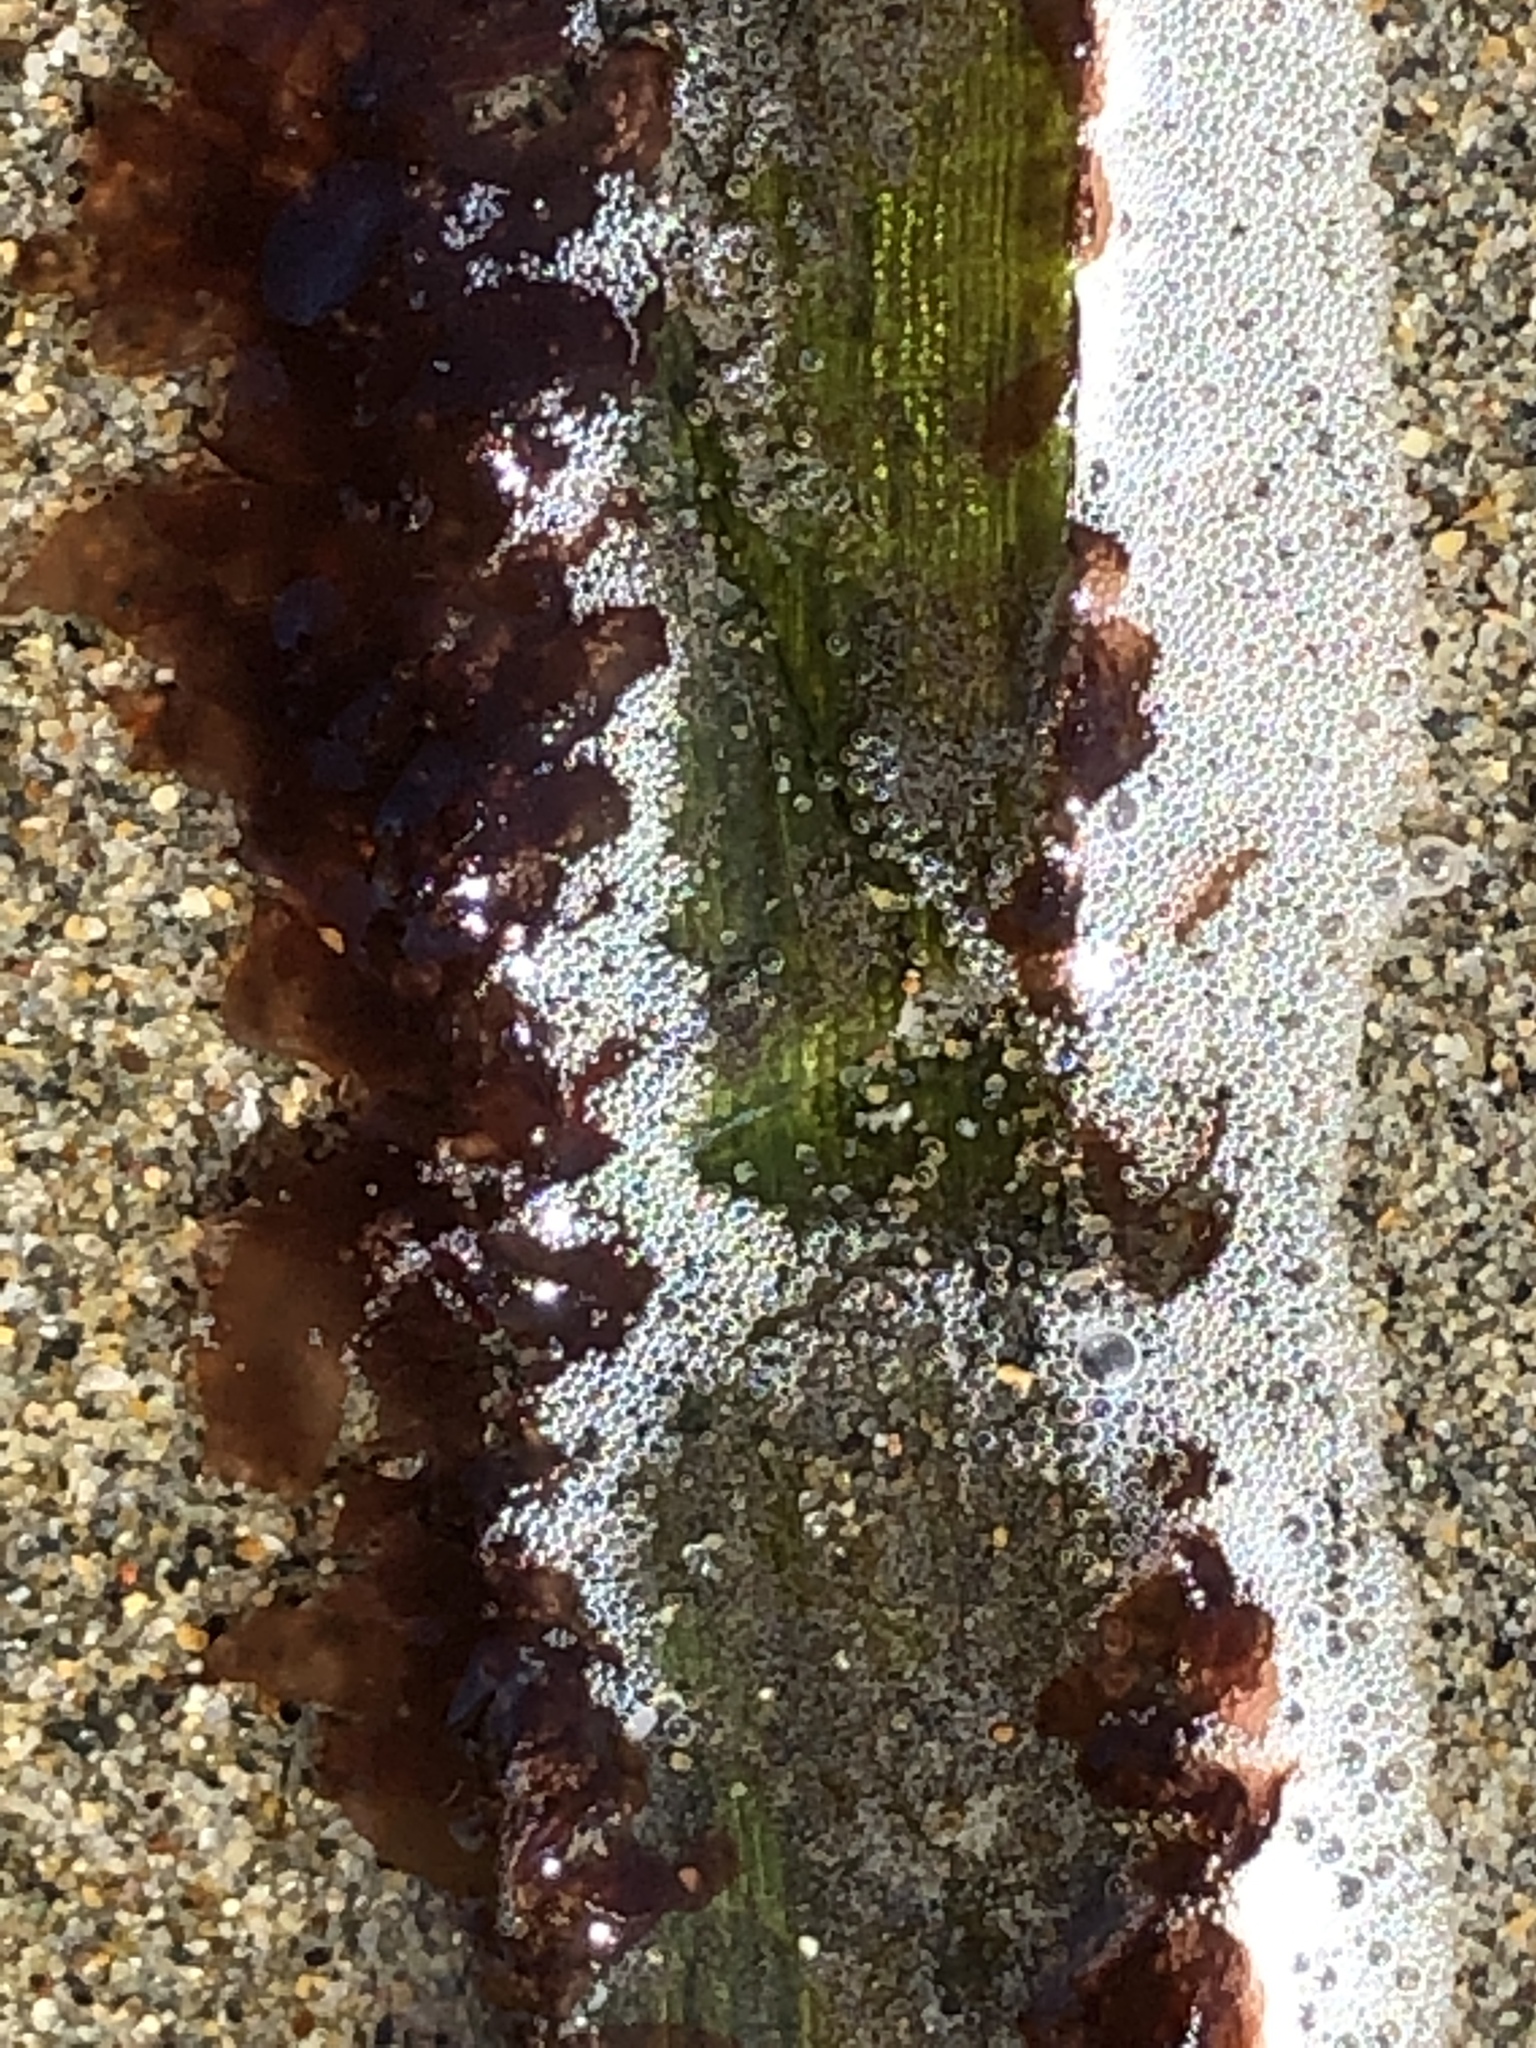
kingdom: Plantae
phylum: Rhodophyta
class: Compsopogonophyceae
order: Erythropeltidales
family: Erythrotrichiaceae
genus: Smithora
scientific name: Smithora naiadum
